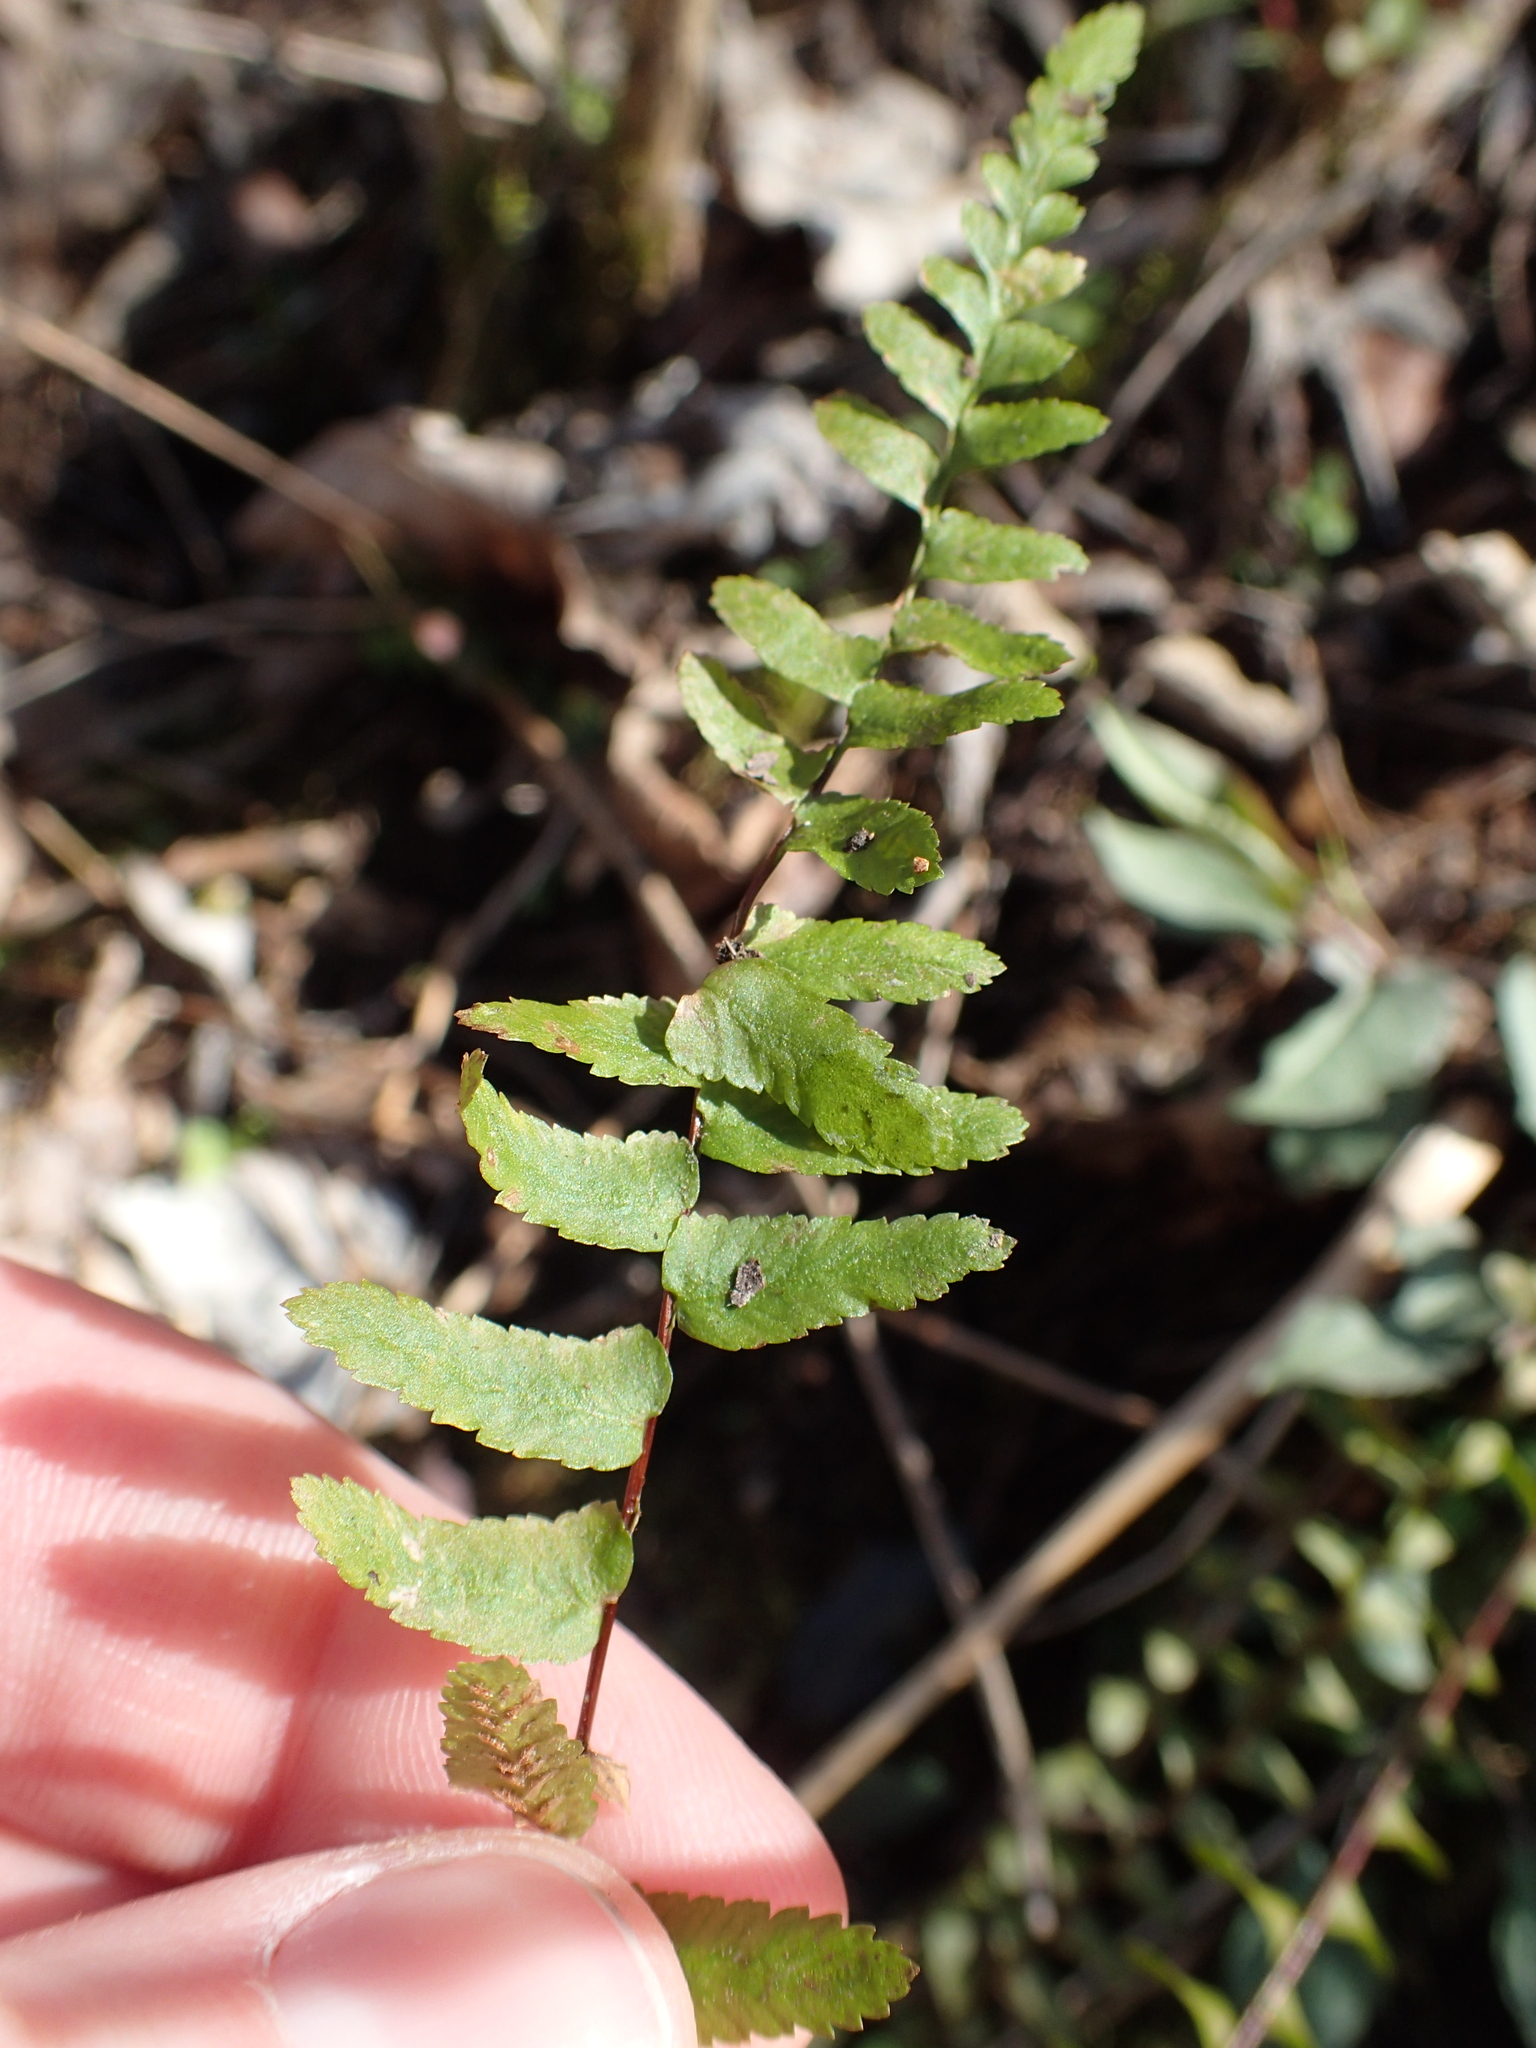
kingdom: Plantae
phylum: Tracheophyta
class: Polypodiopsida
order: Polypodiales
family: Aspleniaceae
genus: Asplenium
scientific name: Asplenium platyneuron
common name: Ebony spleenwort
